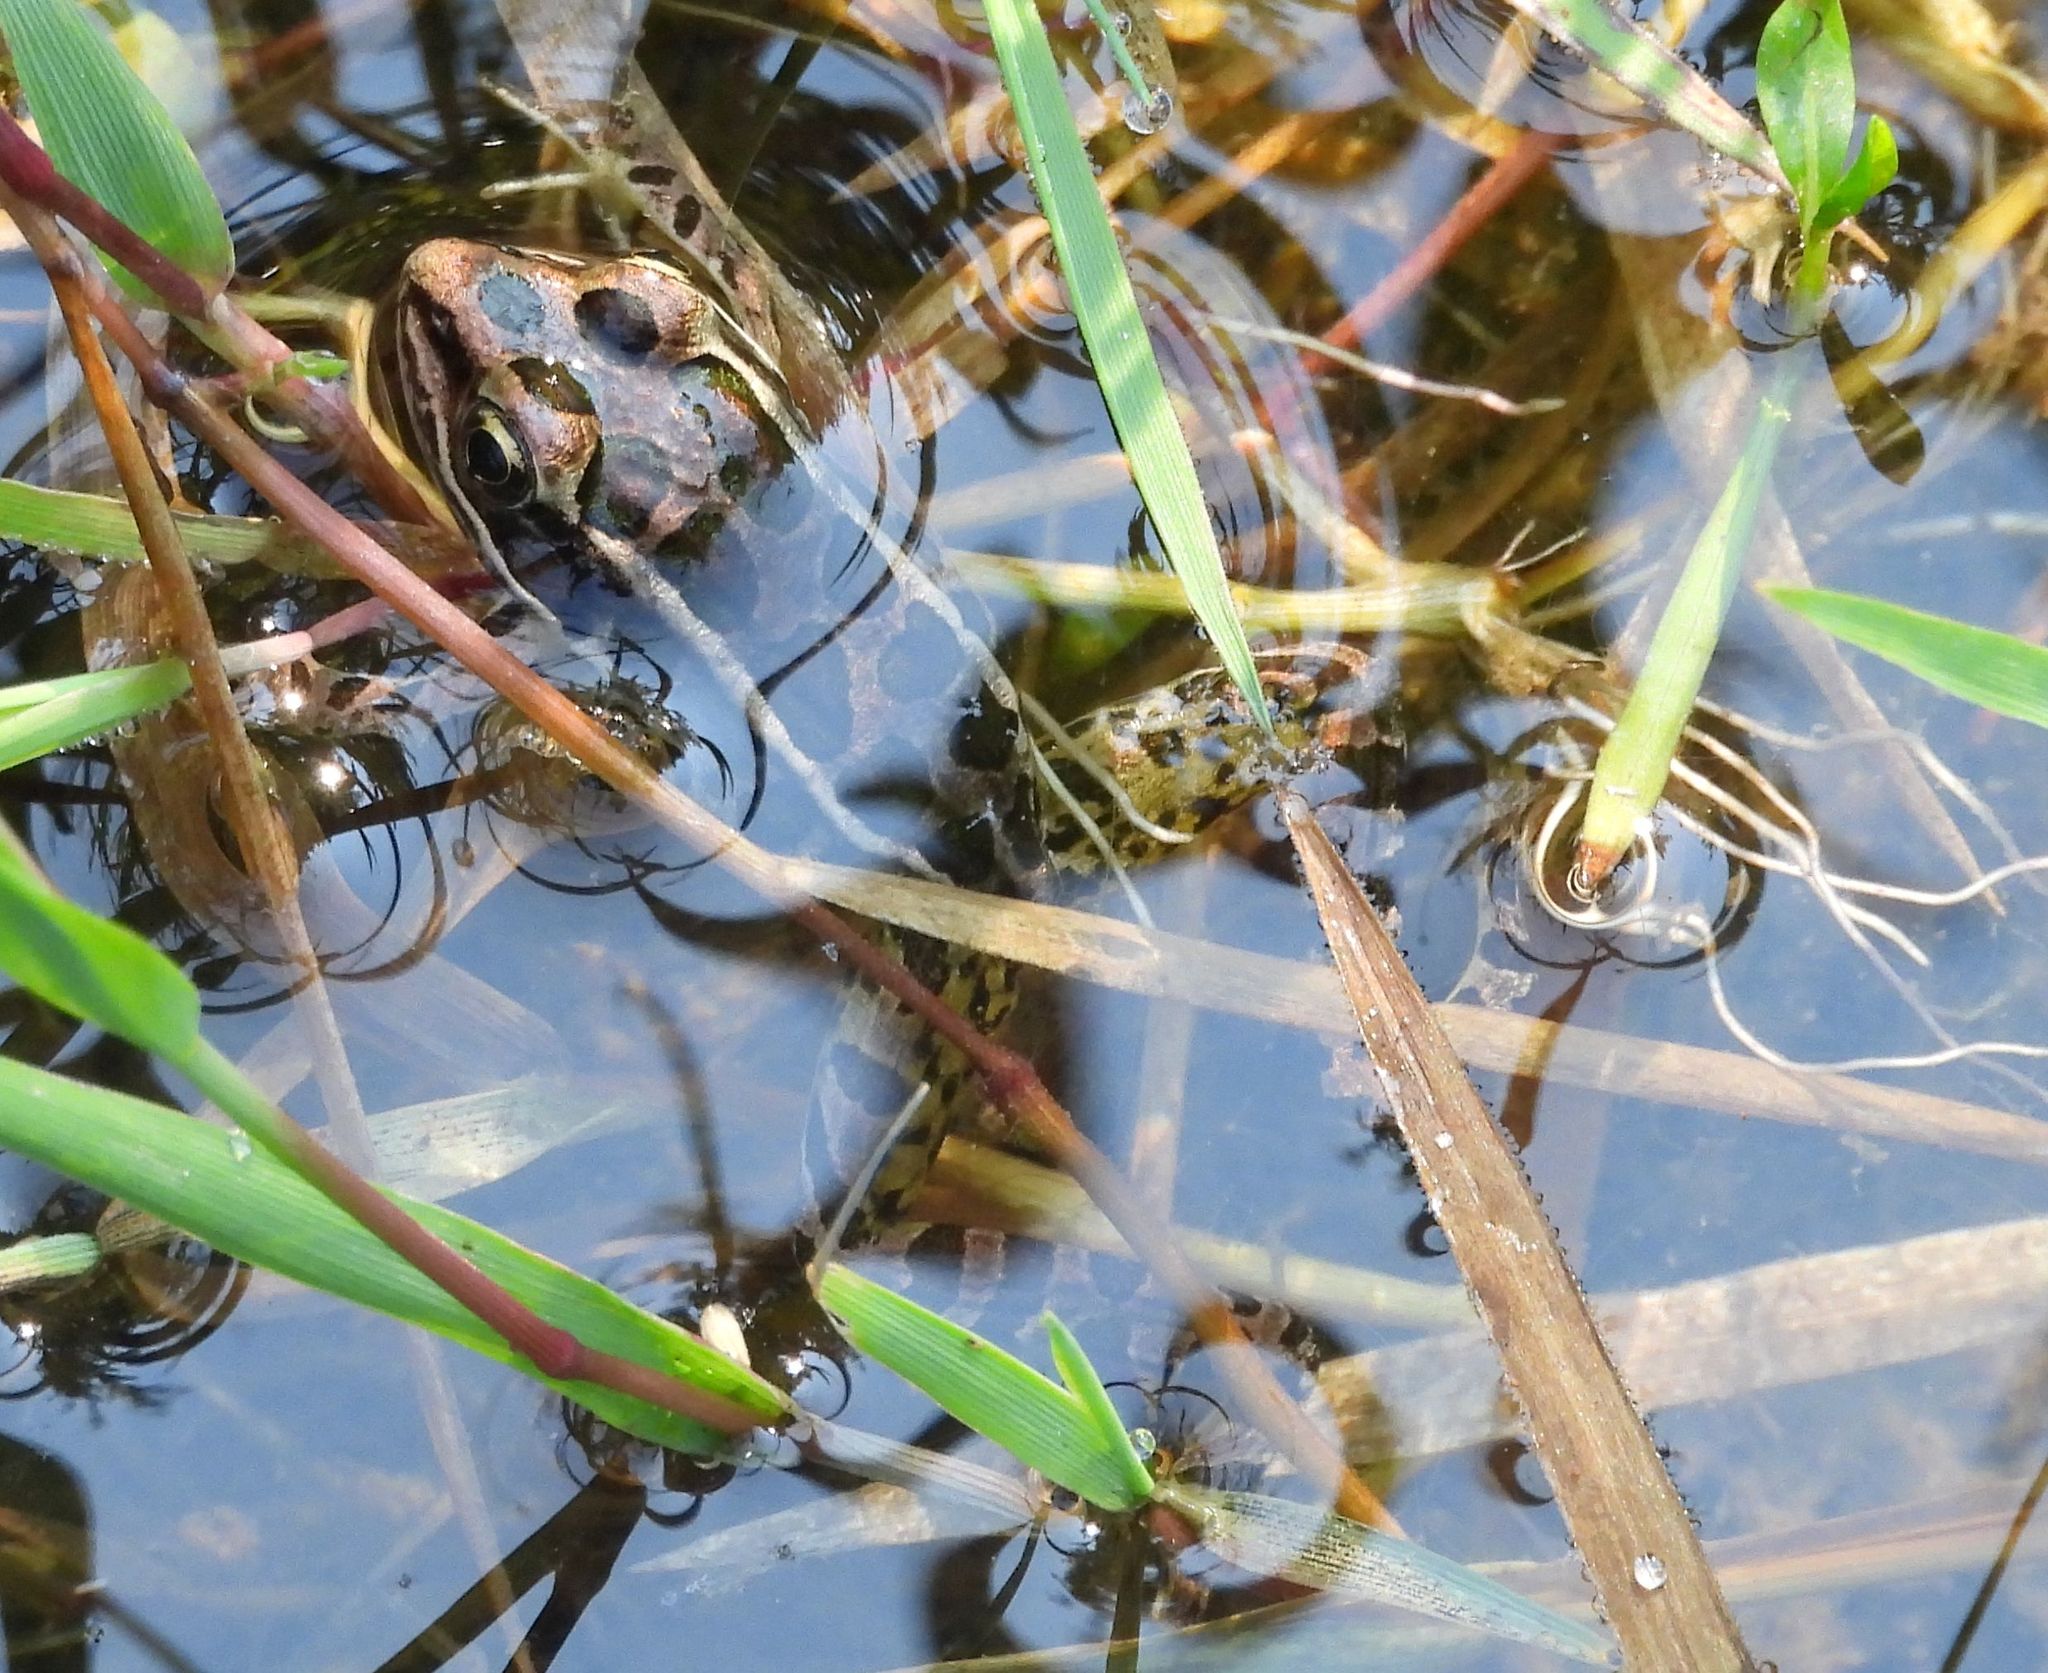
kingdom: Animalia
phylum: Chordata
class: Amphibia
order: Anura
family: Ranidae
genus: Lithobates
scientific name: Lithobates pipiens
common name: Northern leopard frog
